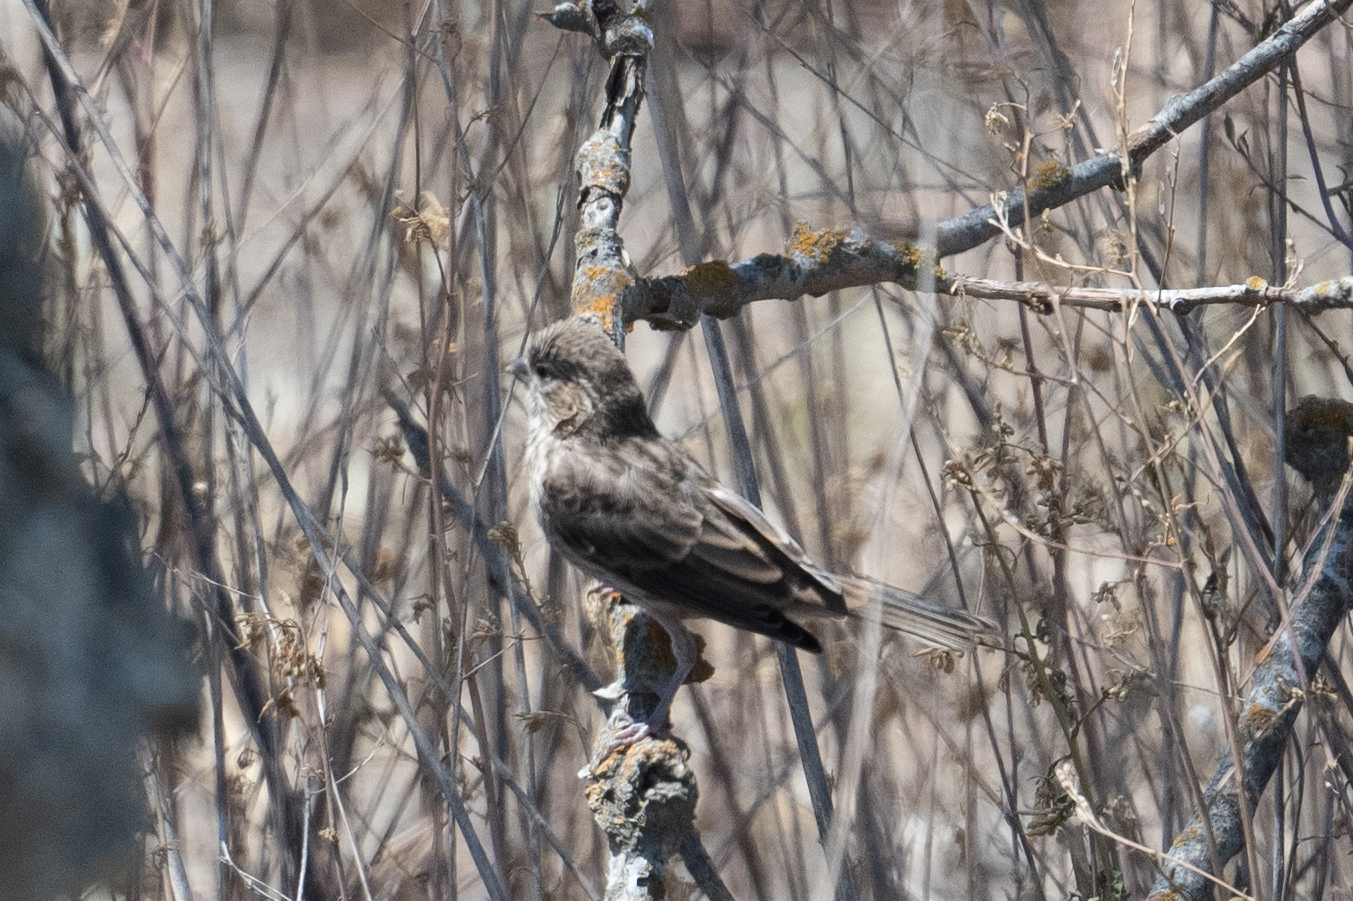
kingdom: Animalia
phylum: Chordata
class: Aves
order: Passeriformes
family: Fringillidae
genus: Haemorhous
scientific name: Haemorhous mexicanus
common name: House finch
